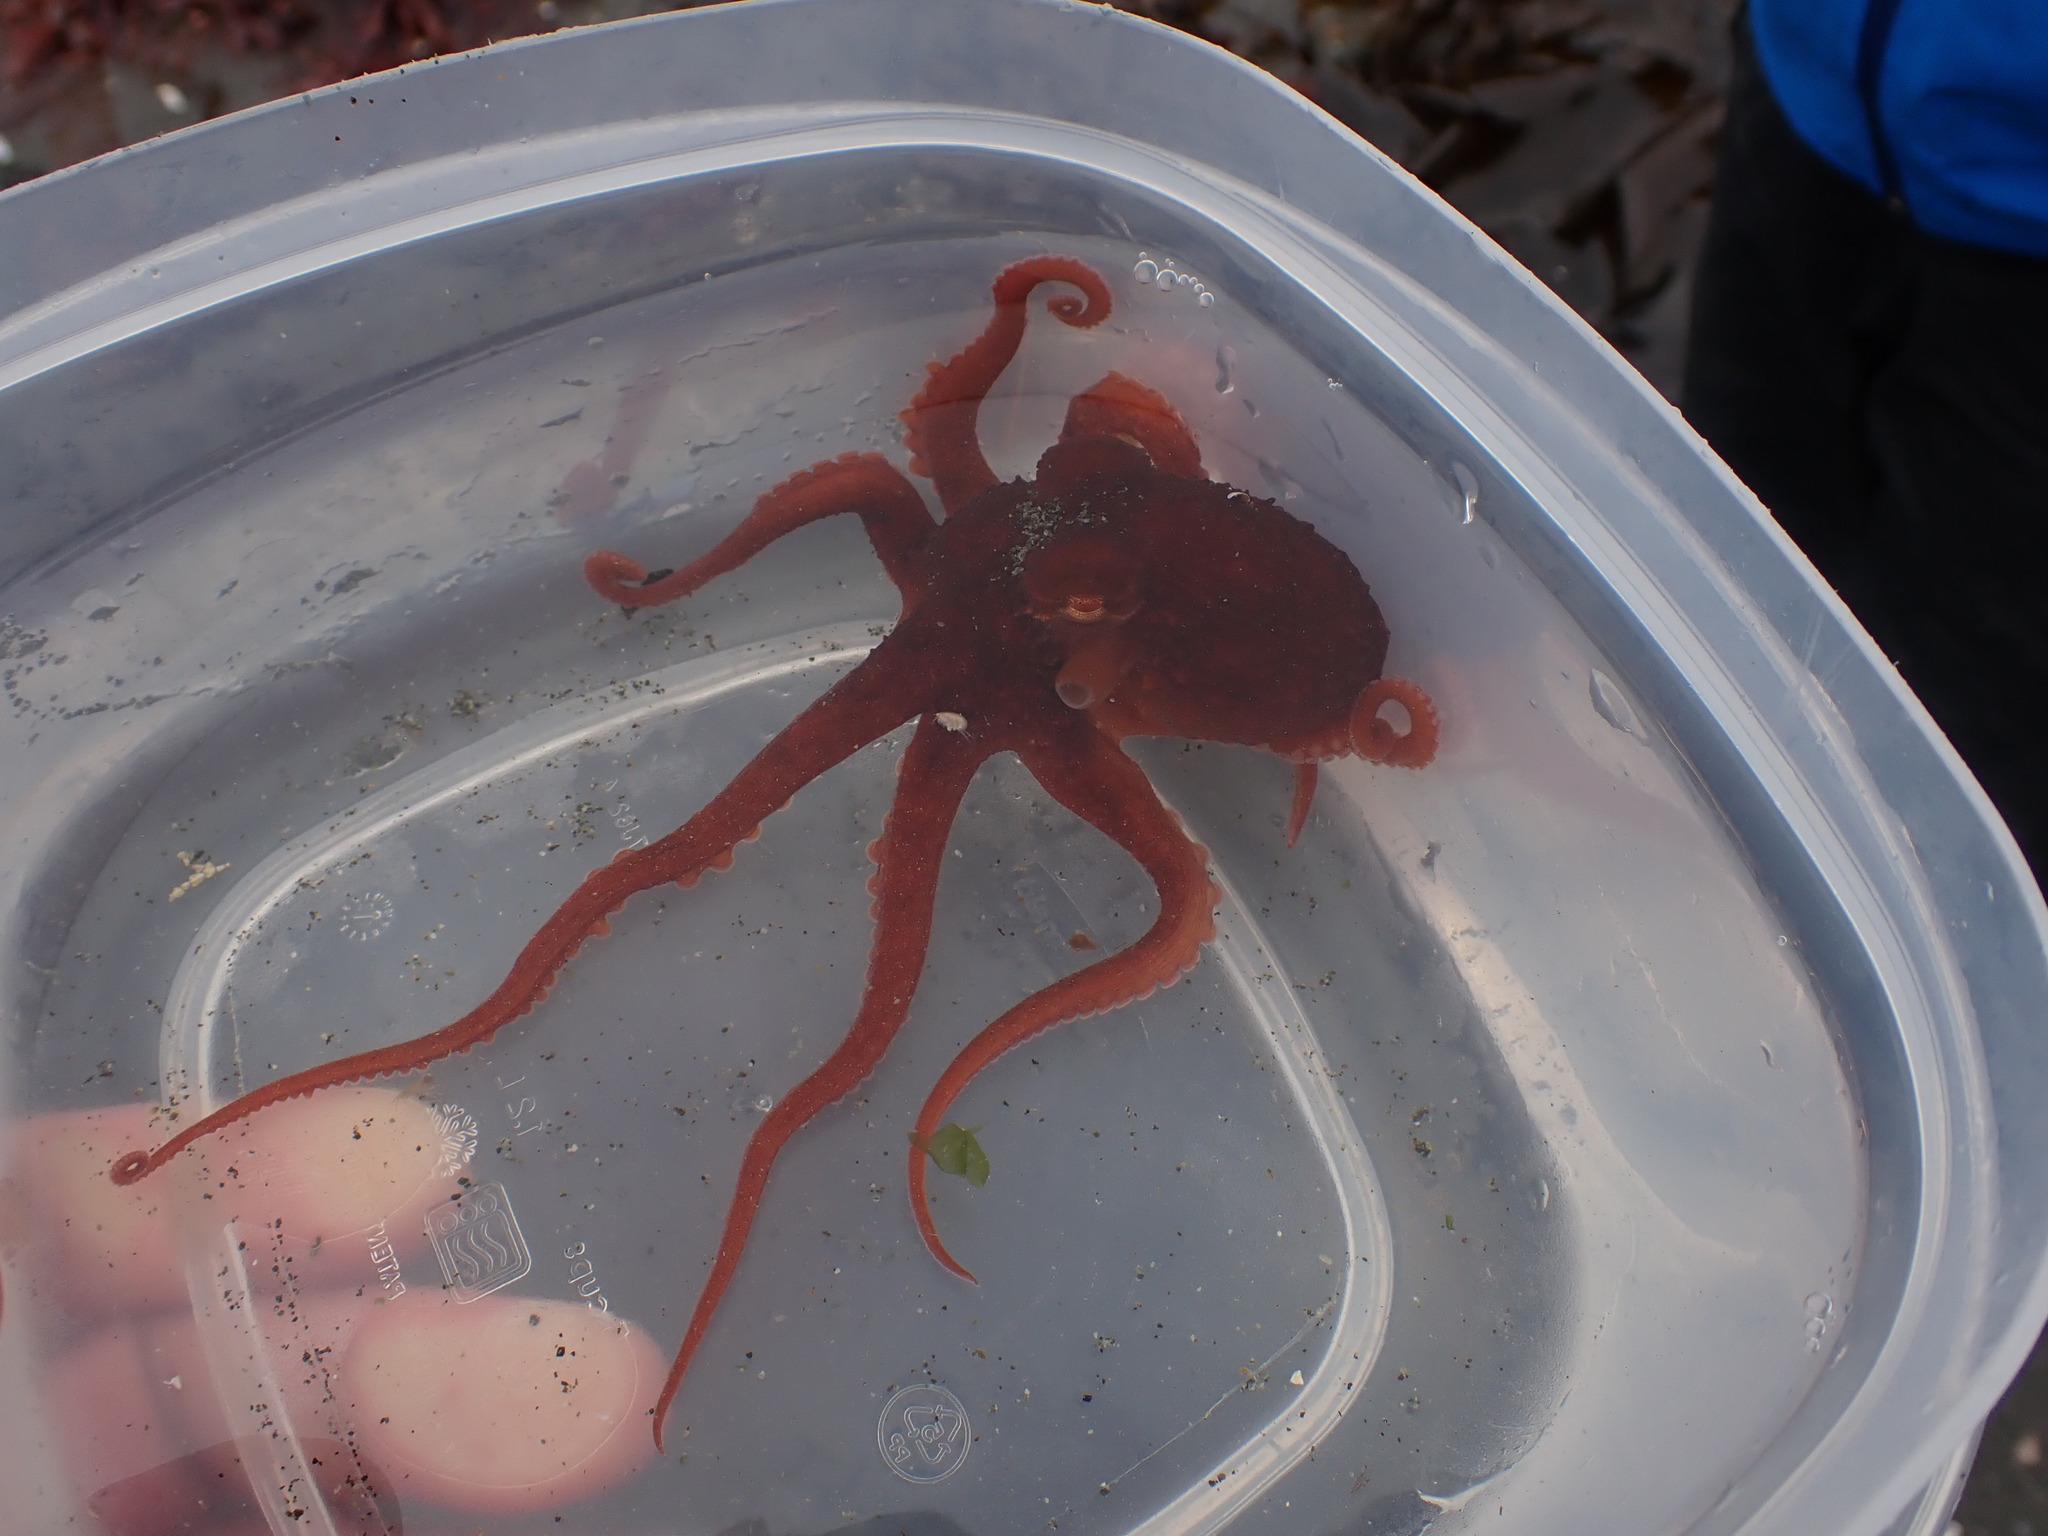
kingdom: Animalia
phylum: Mollusca
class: Cephalopoda
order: Octopoda
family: Enteroctopodidae
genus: Enteroctopus
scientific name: Enteroctopus dofleini
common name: Giant north pacific octopus
